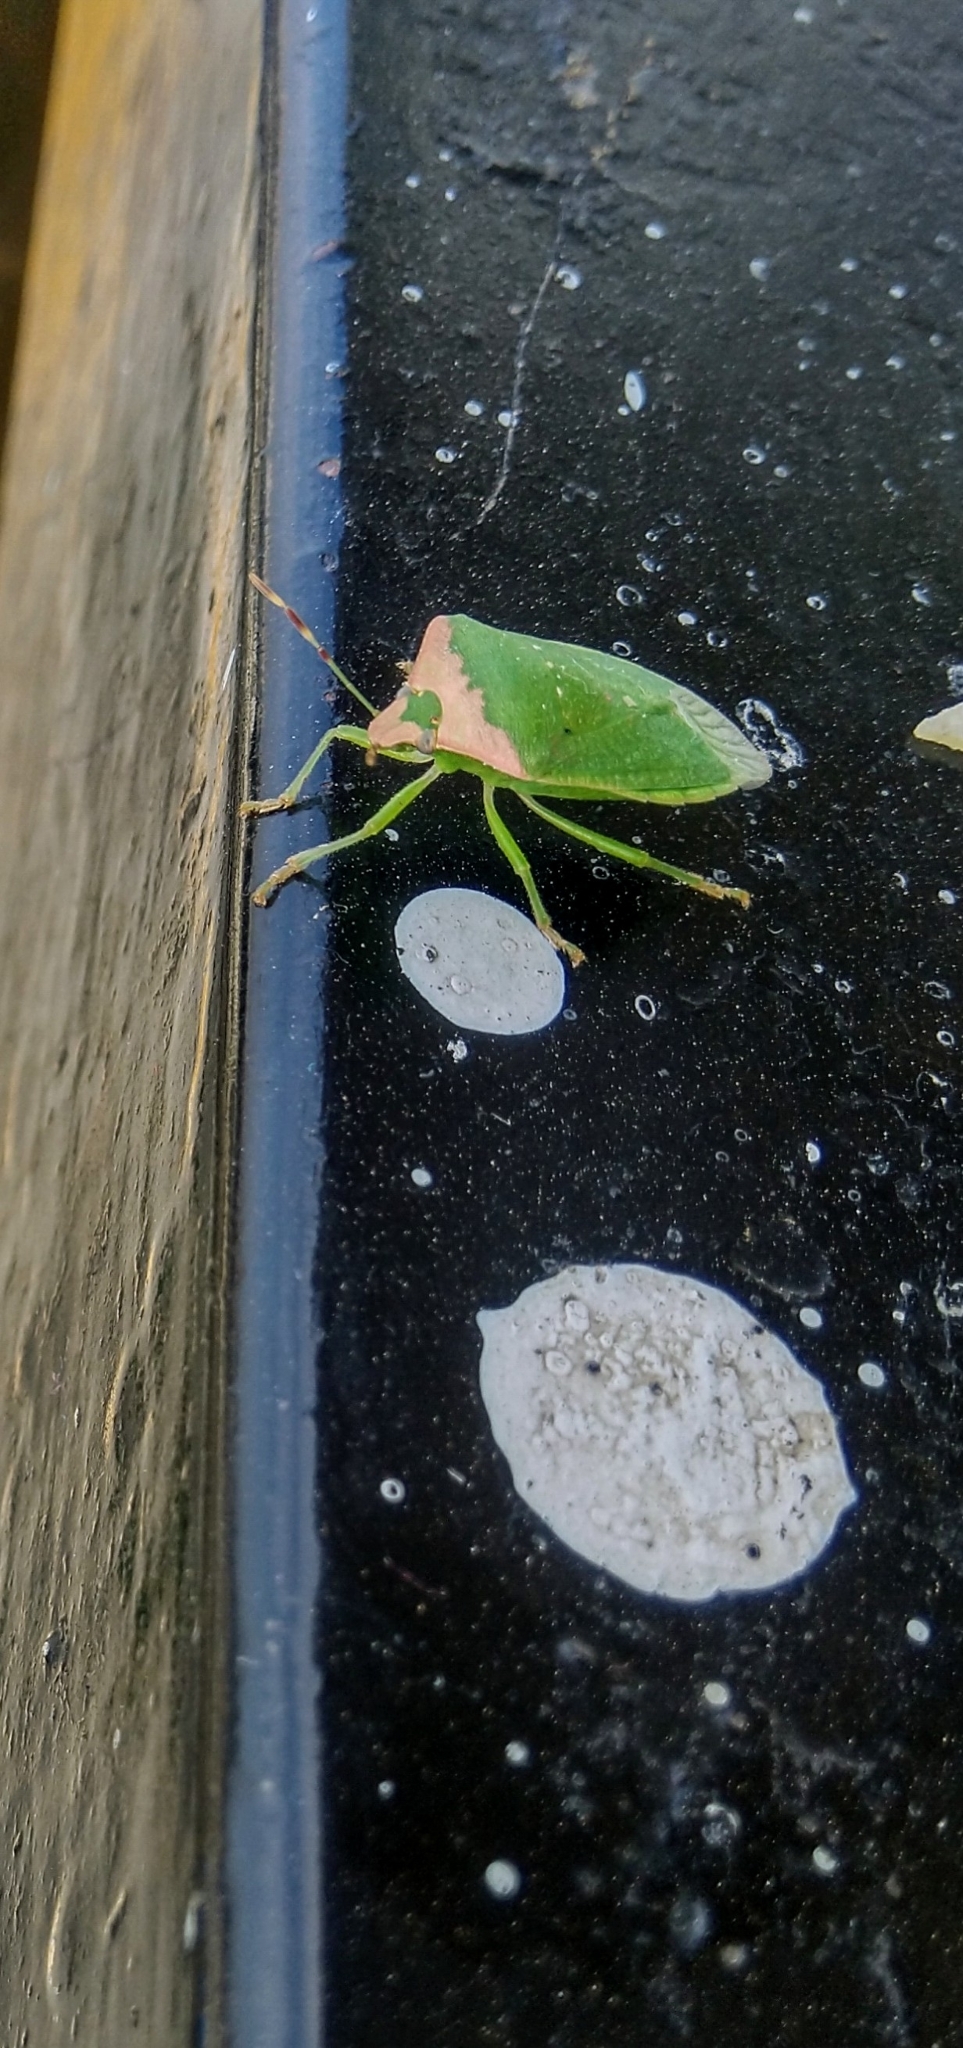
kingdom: Animalia
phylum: Arthropoda
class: Insecta
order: Hemiptera
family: Pentatomidae
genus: Nezara
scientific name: Nezara viridula
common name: Southern green stink bug
